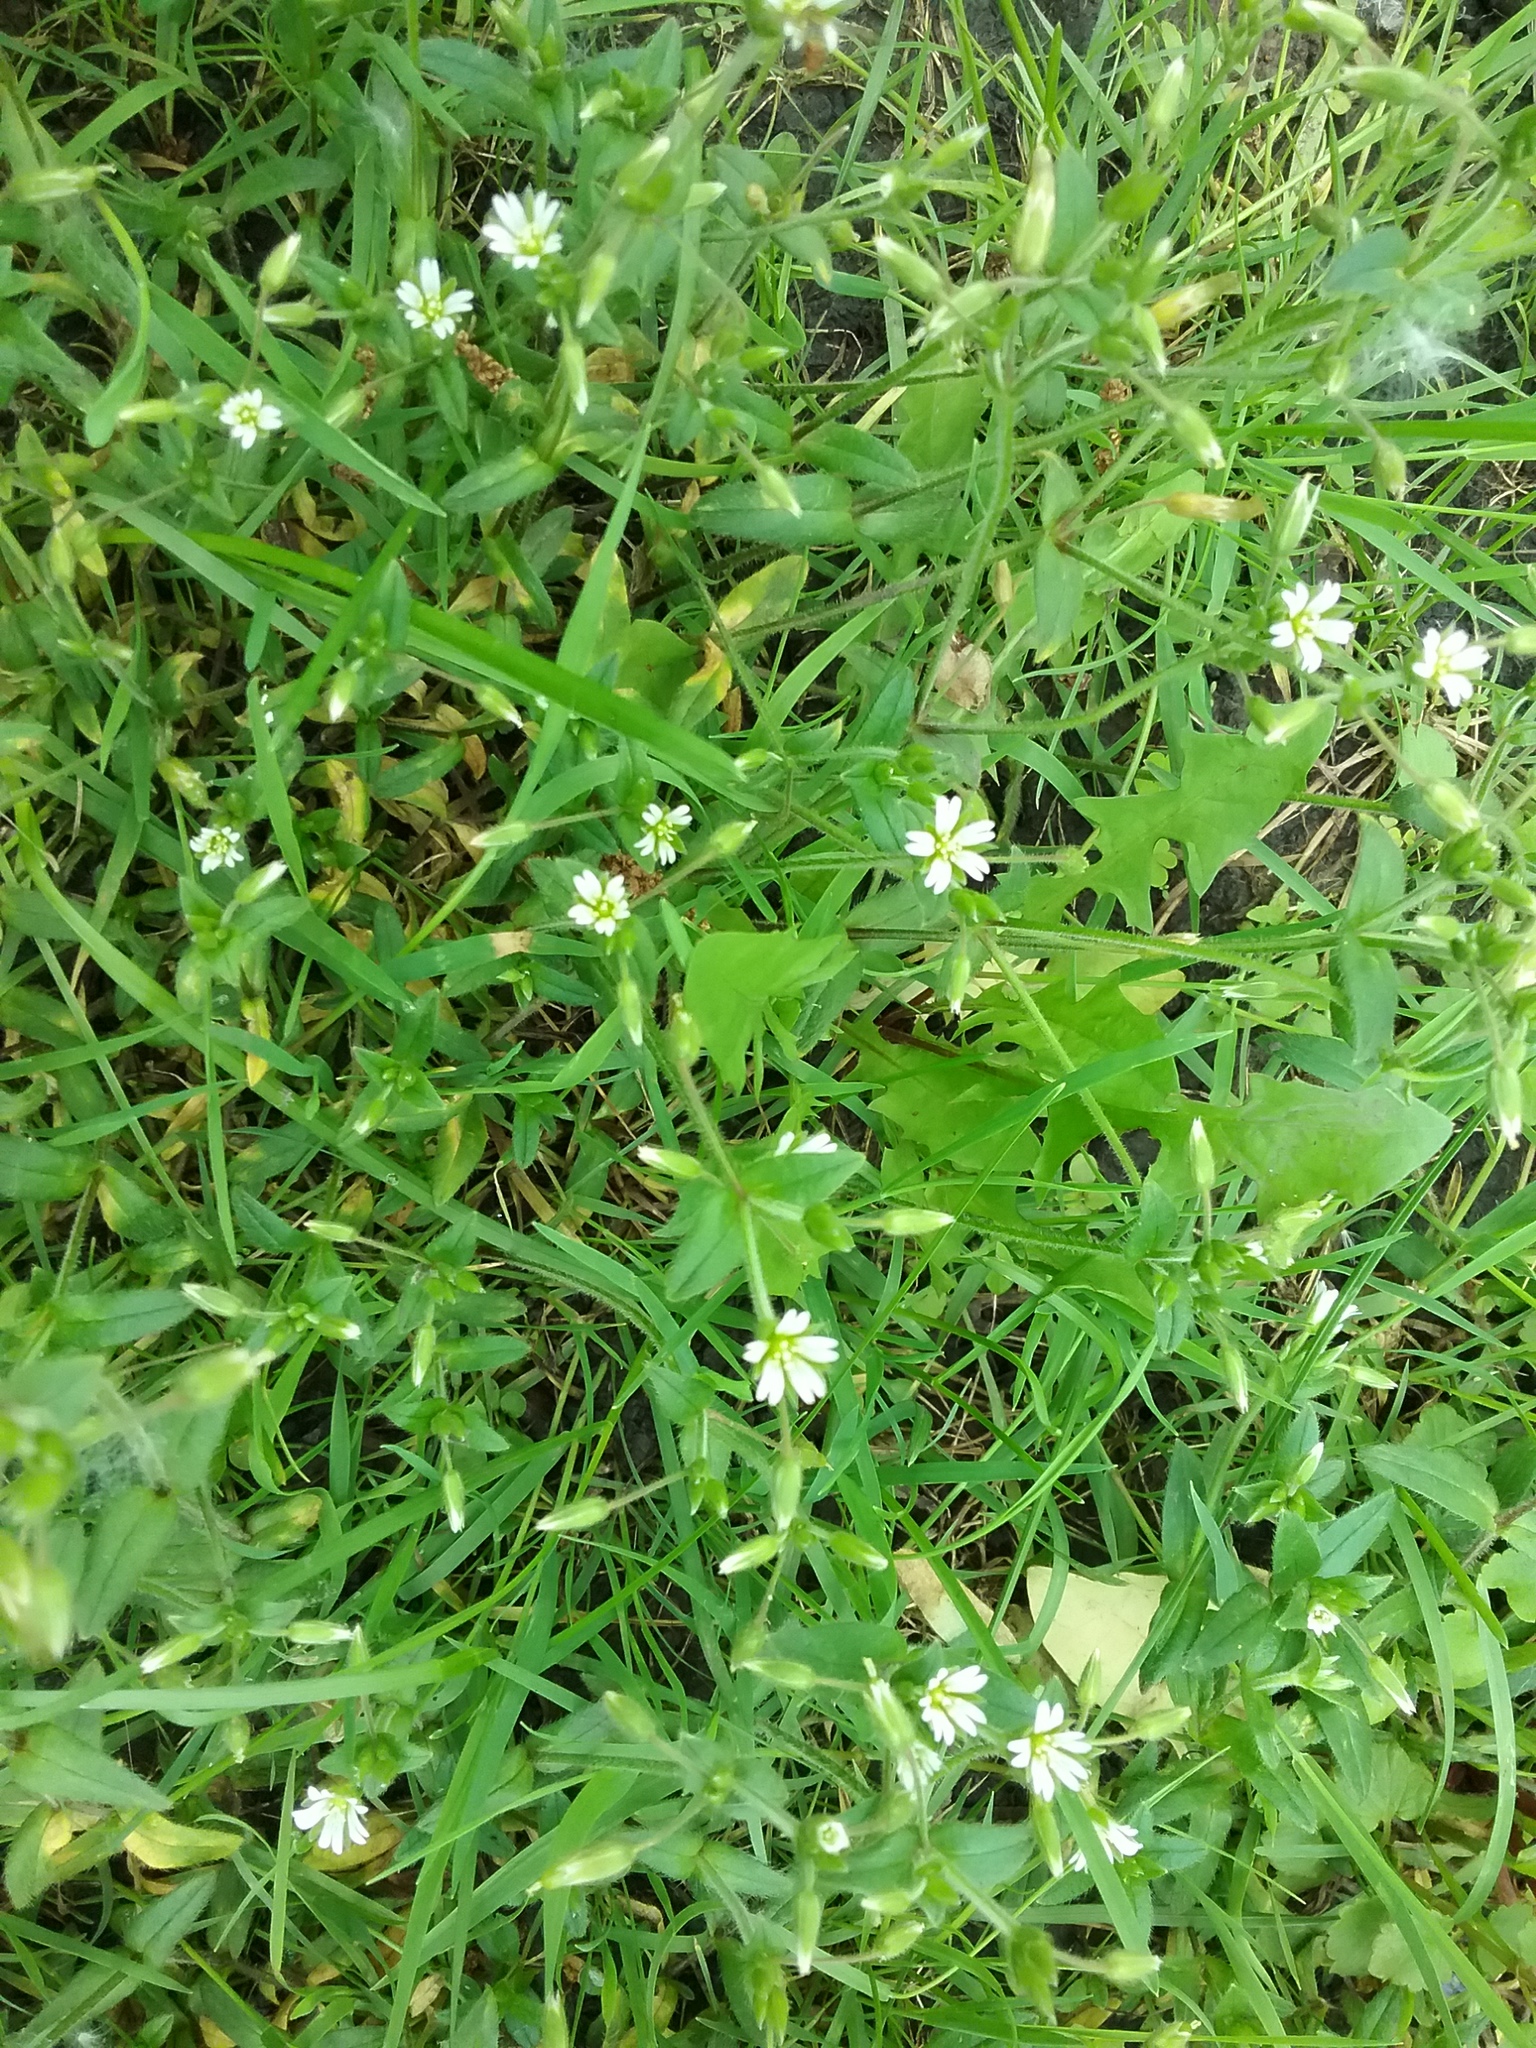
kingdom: Plantae
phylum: Tracheophyta
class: Magnoliopsida
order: Caryophyllales
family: Caryophyllaceae
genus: Cerastium
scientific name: Cerastium fontanum
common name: Common mouse-ear
